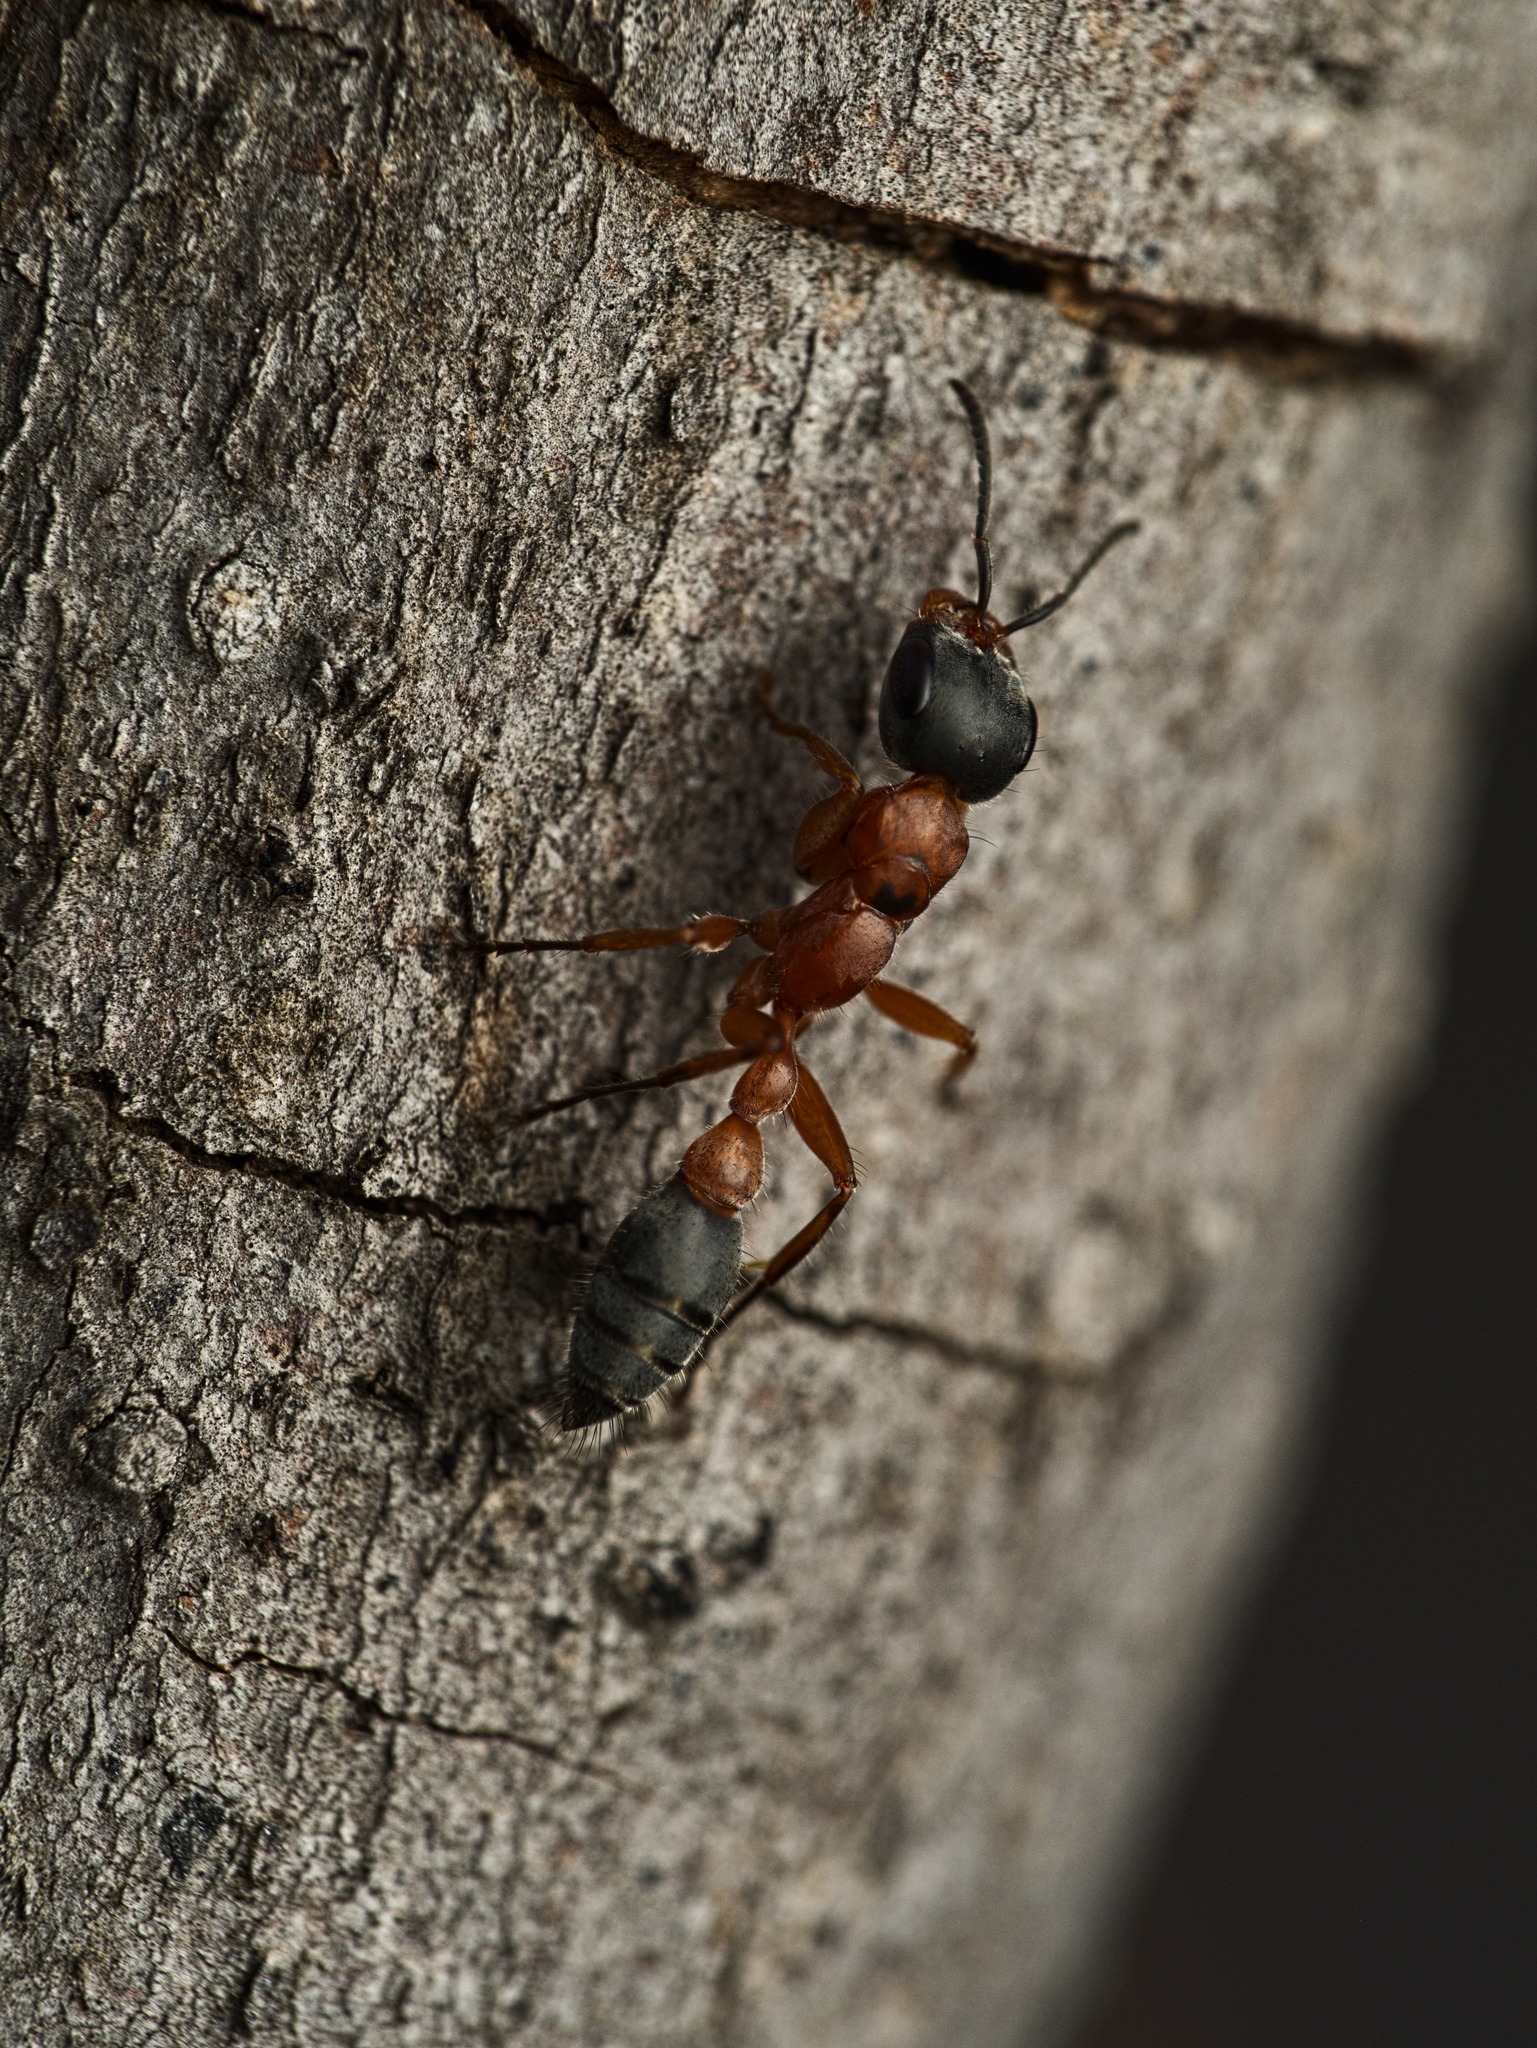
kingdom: Animalia
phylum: Arthropoda
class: Insecta
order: Hymenoptera
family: Formicidae
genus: Pseudomyrmex
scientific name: Pseudomyrmex gracilis
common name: Graceful twig ant
